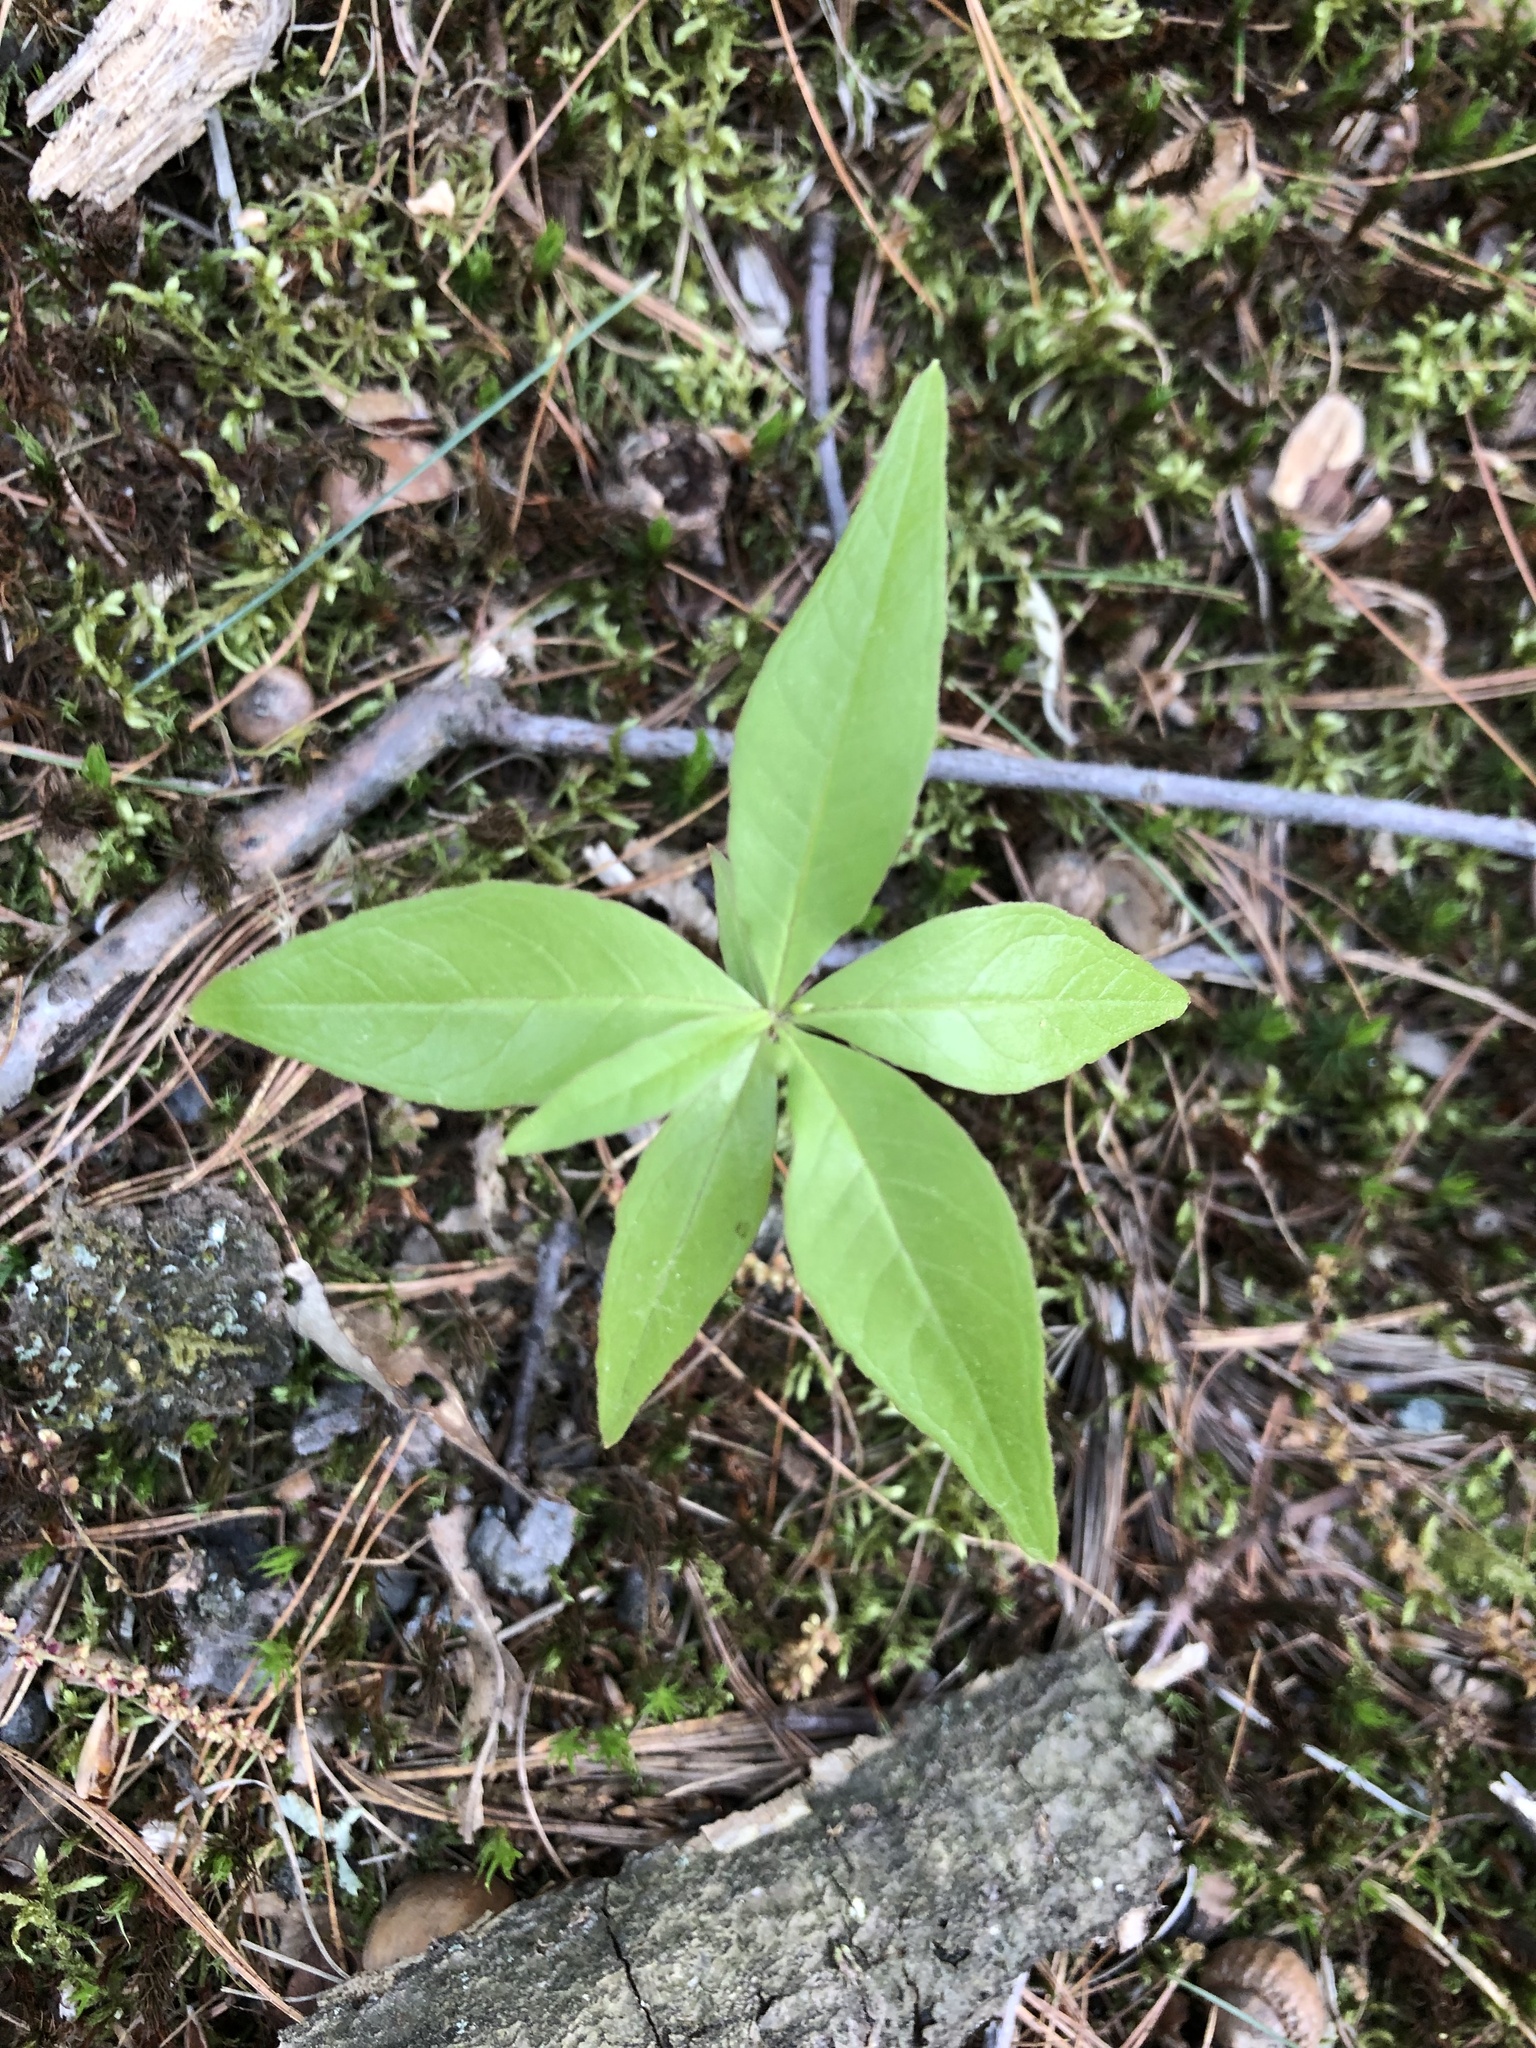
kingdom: Plantae
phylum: Tracheophyta
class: Magnoliopsida
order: Ericales
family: Primulaceae
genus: Lysimachia
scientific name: Lysimachia borealis
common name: American starflower
